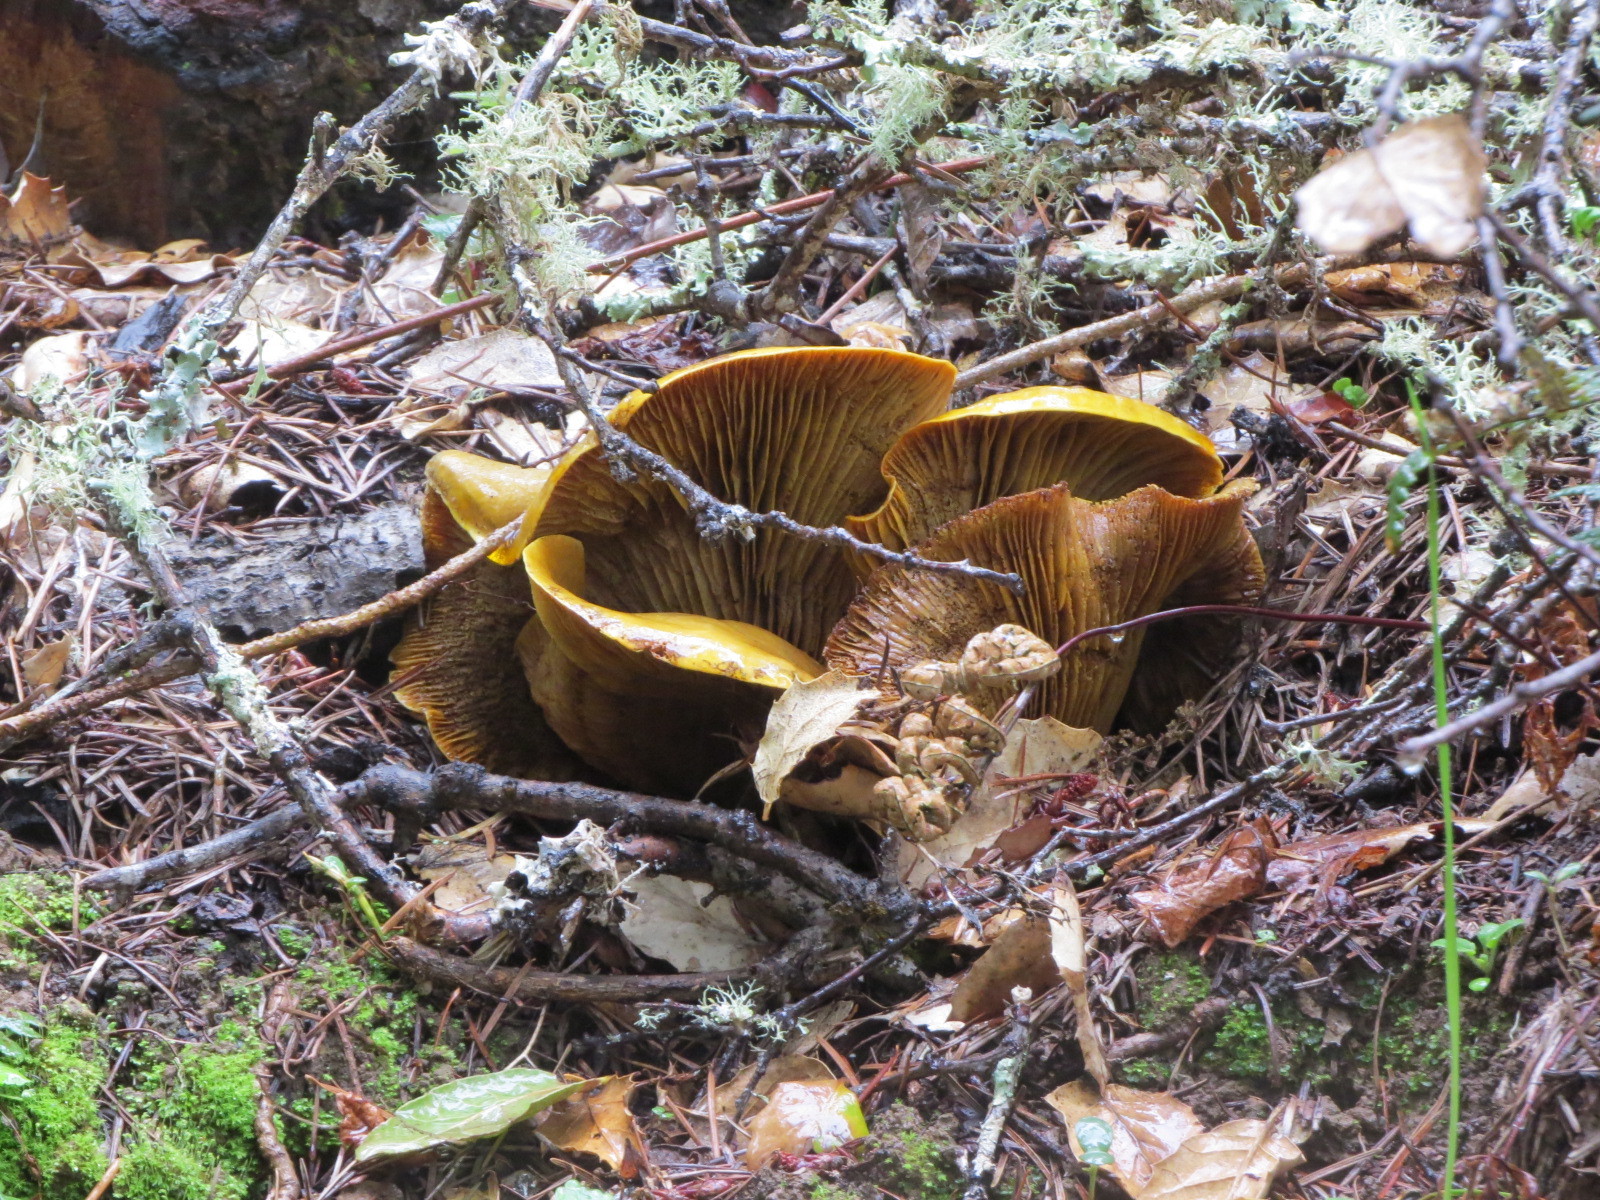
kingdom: Fungi
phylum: Basidiomycota
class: Agaricomycetes
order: Agaricales
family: Omphalotaceae
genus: Omphalotus
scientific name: Omphalotus olivascens
